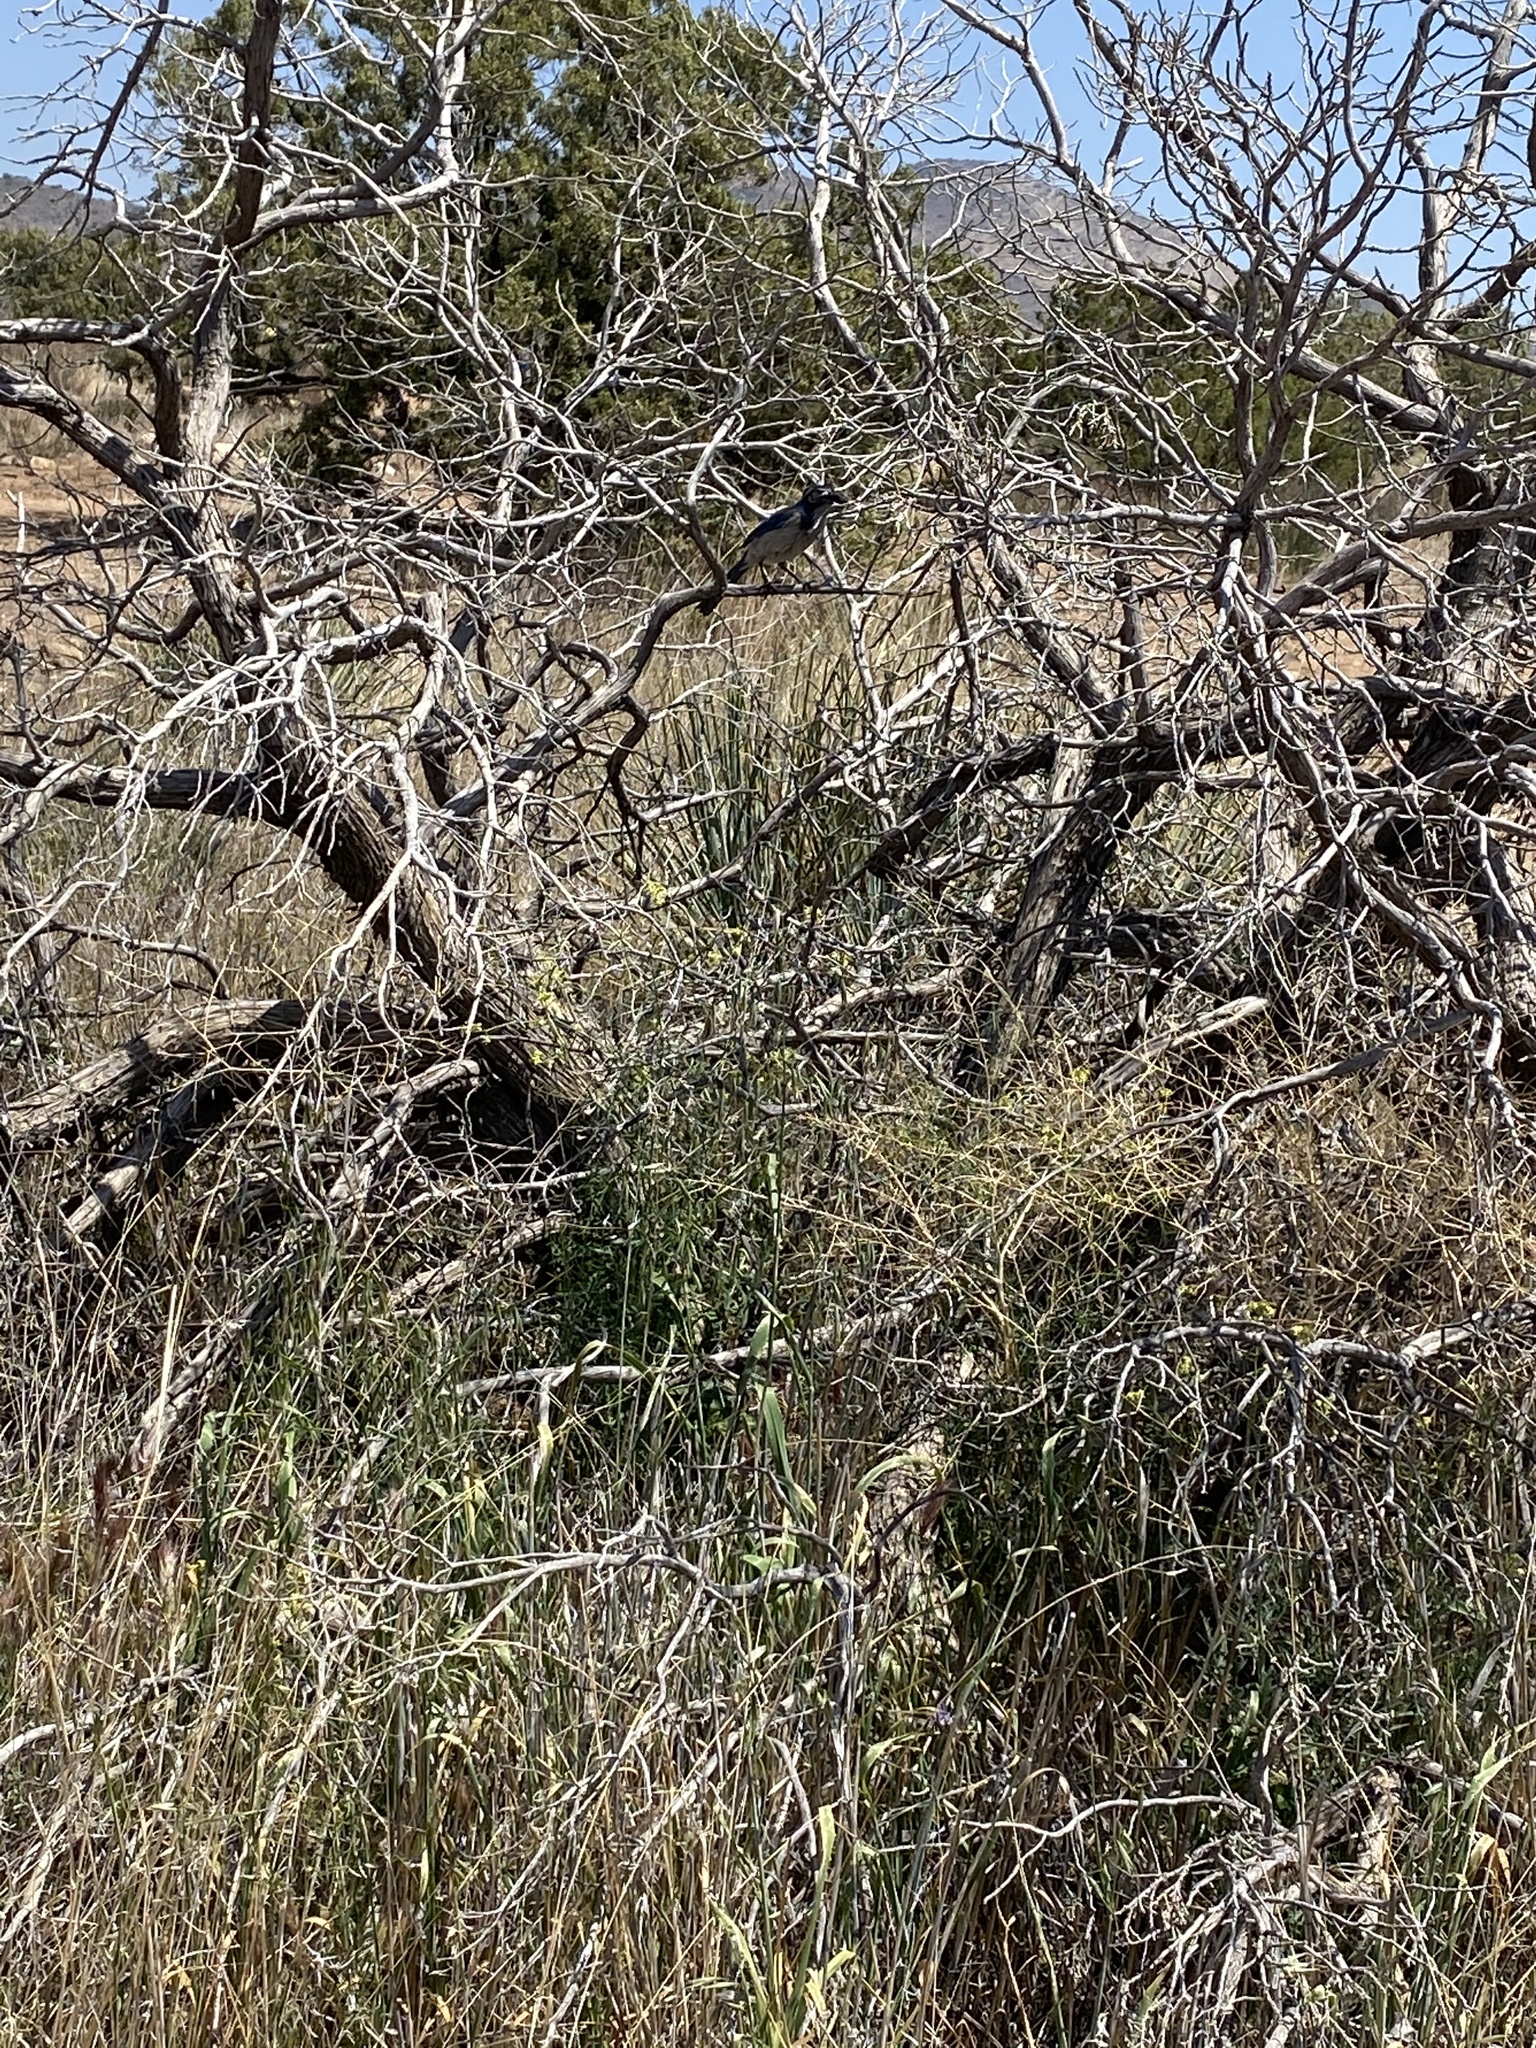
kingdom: Animalia
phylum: Chordata
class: Aves
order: Passeriformes
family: Corvidae
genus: Aphelocoma
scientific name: Aphelocoma californica
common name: California scrub-jay
